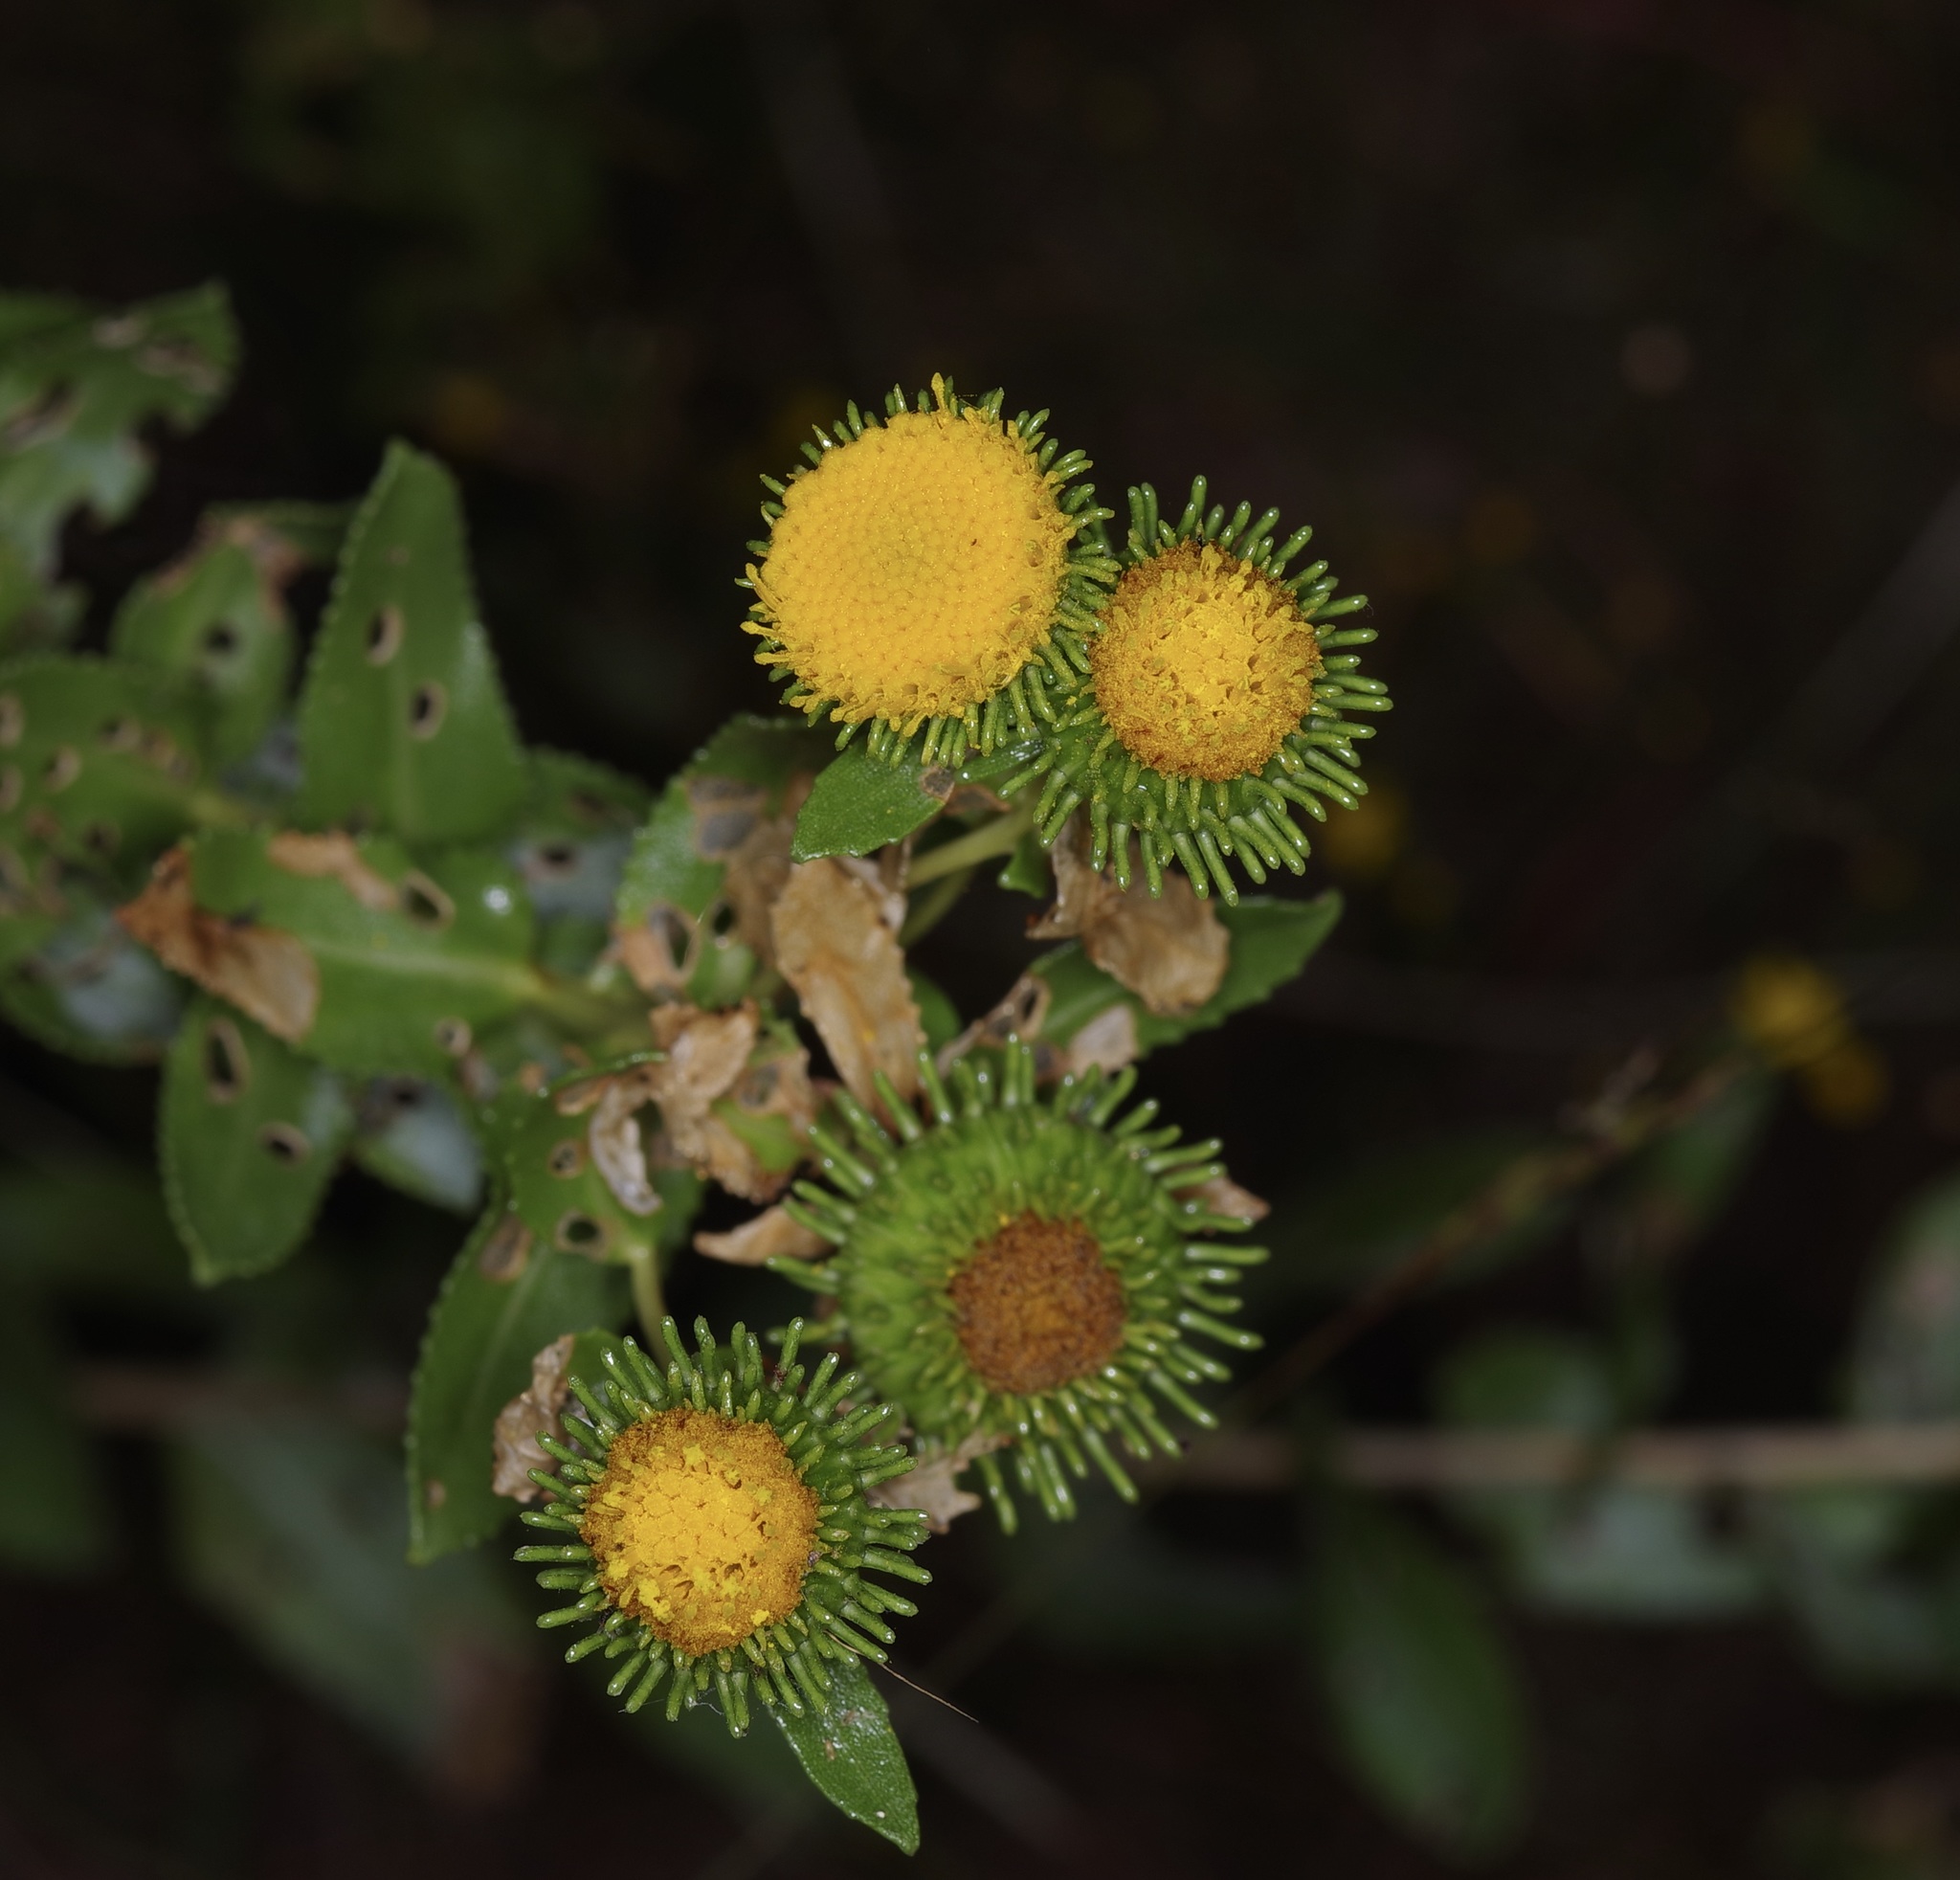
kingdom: Plantae
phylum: Tracheophyta
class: Magnoliopsida
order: Asterales
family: Asteraceae
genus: Grindelia
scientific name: Grindelia nuda
